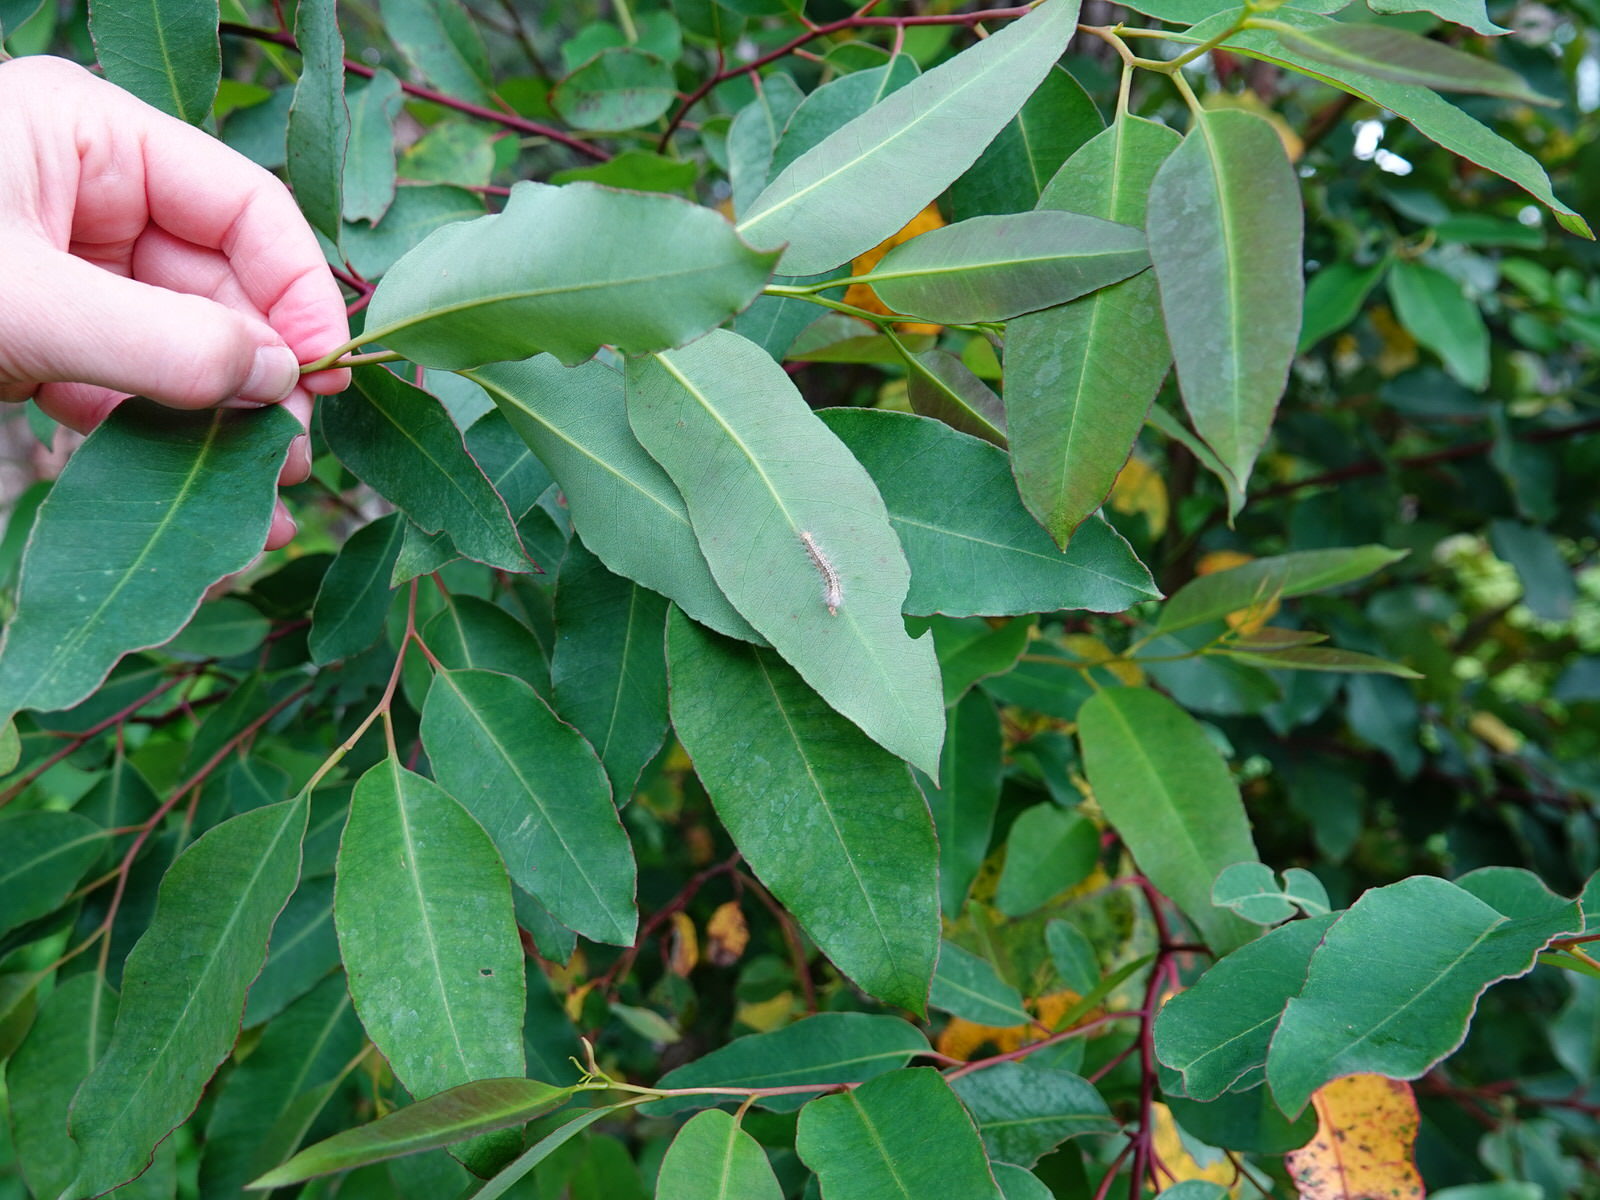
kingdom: Animalia
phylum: Arthropoda
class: Insecta
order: Lepidoptera
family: Nolidae
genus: Uraba
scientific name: Uraba lugens
